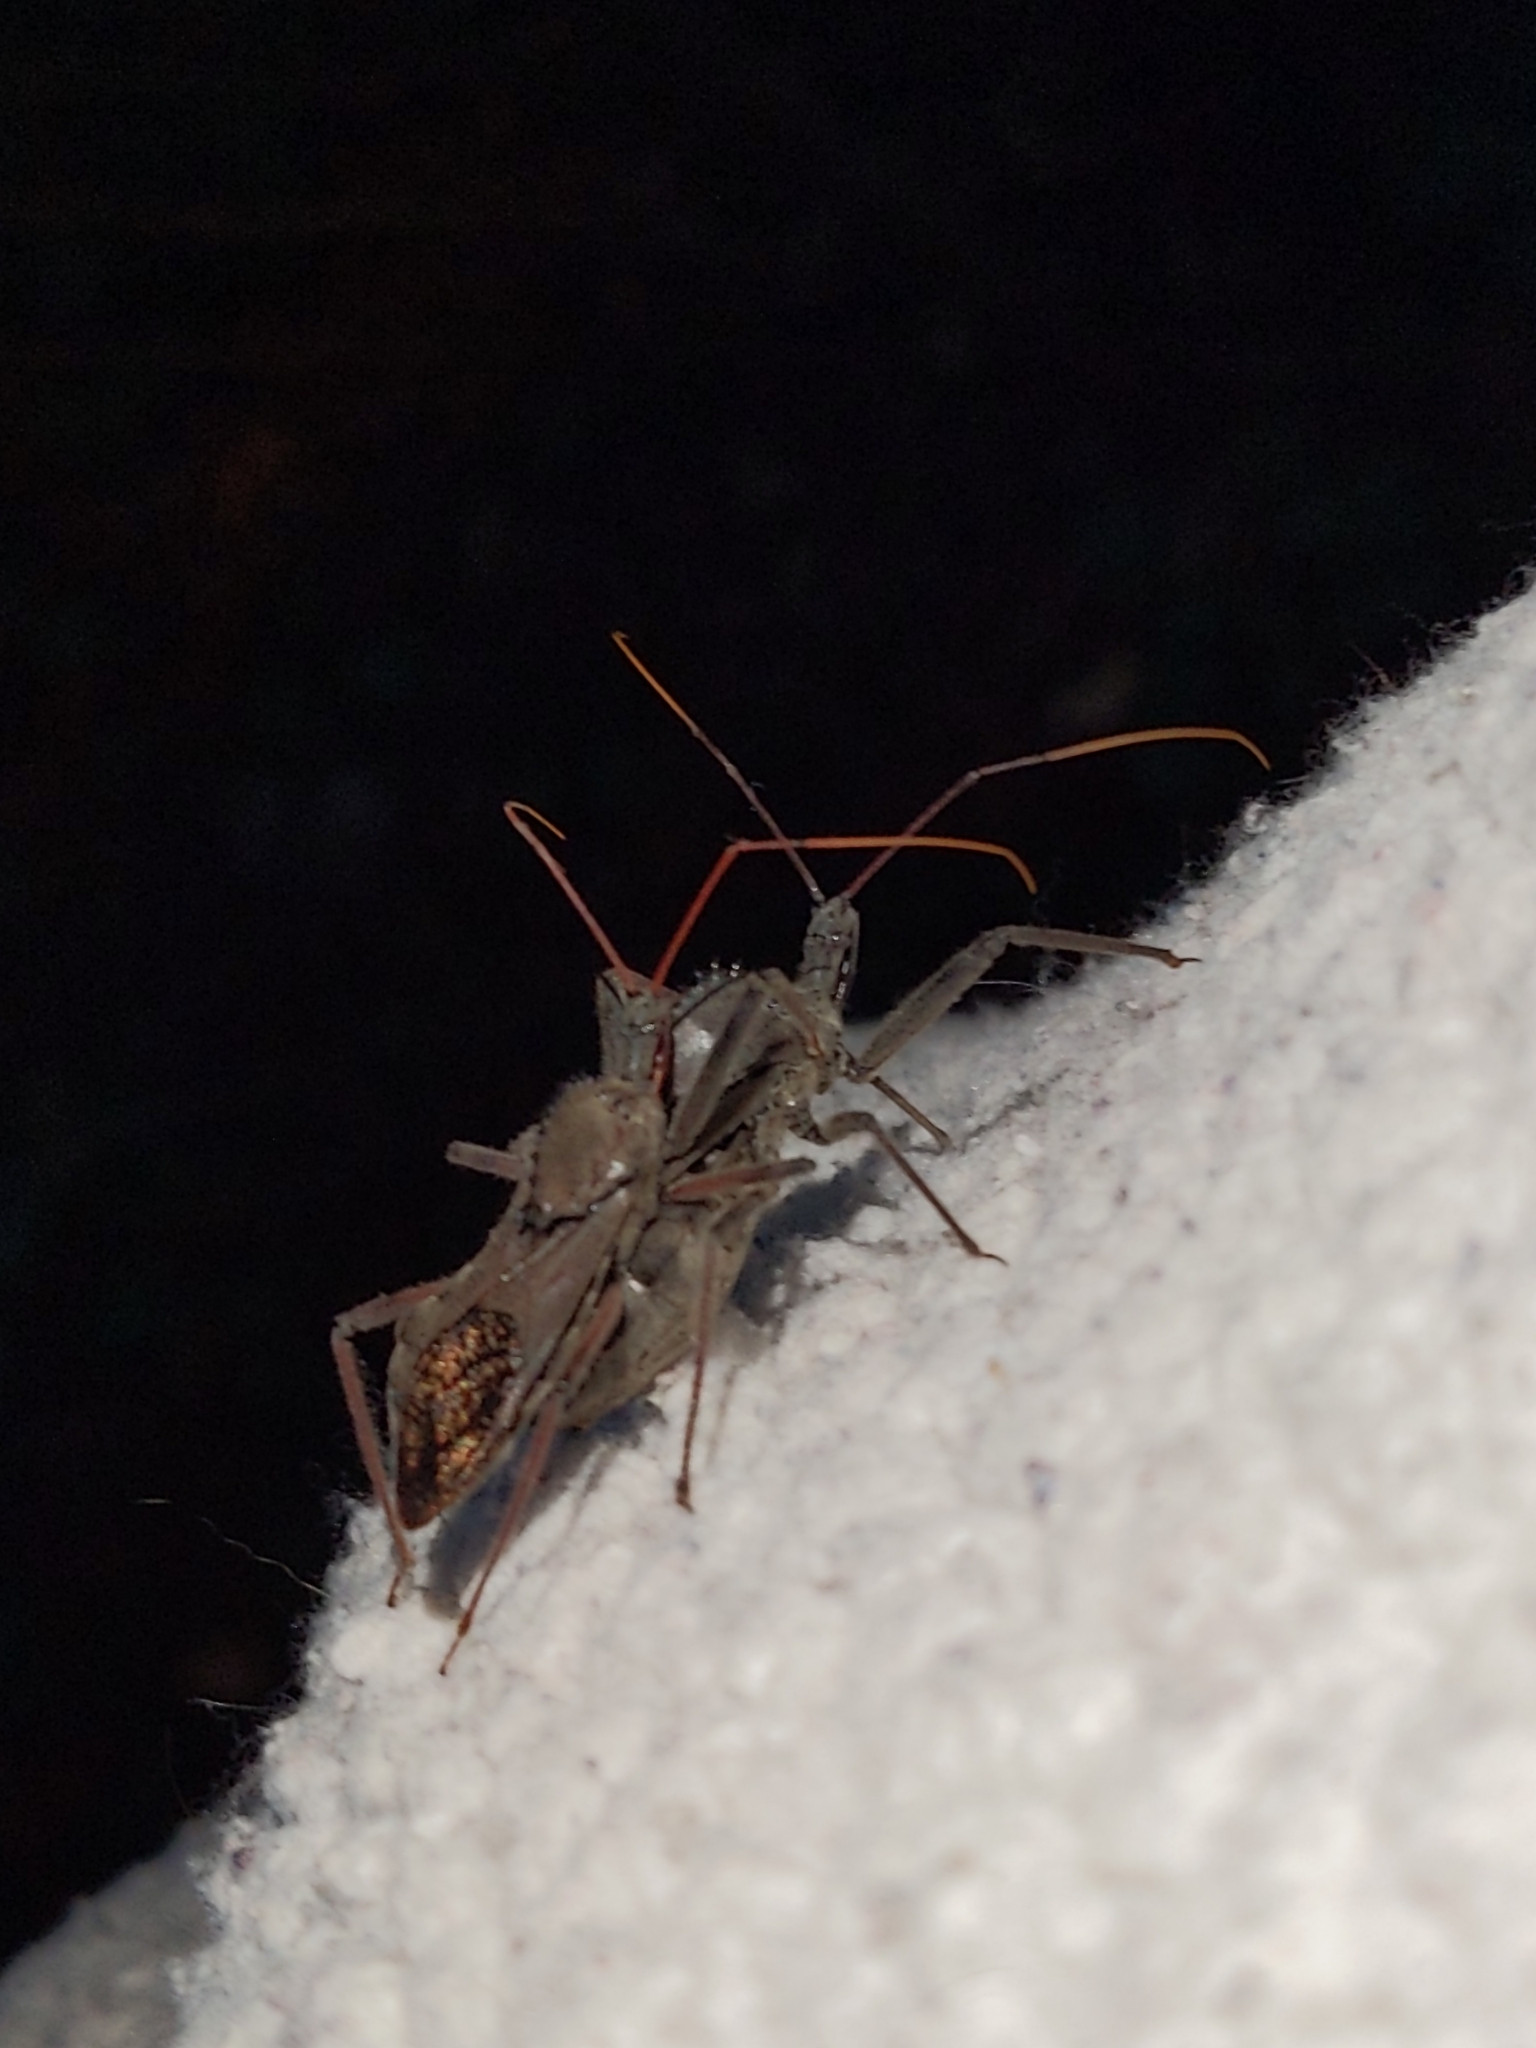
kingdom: Animalia
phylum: Arthropoda
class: Insecta
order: Hemiptera
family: Reduviidae
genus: Arilus
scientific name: Arilus cristatus
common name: North american wheel bug
